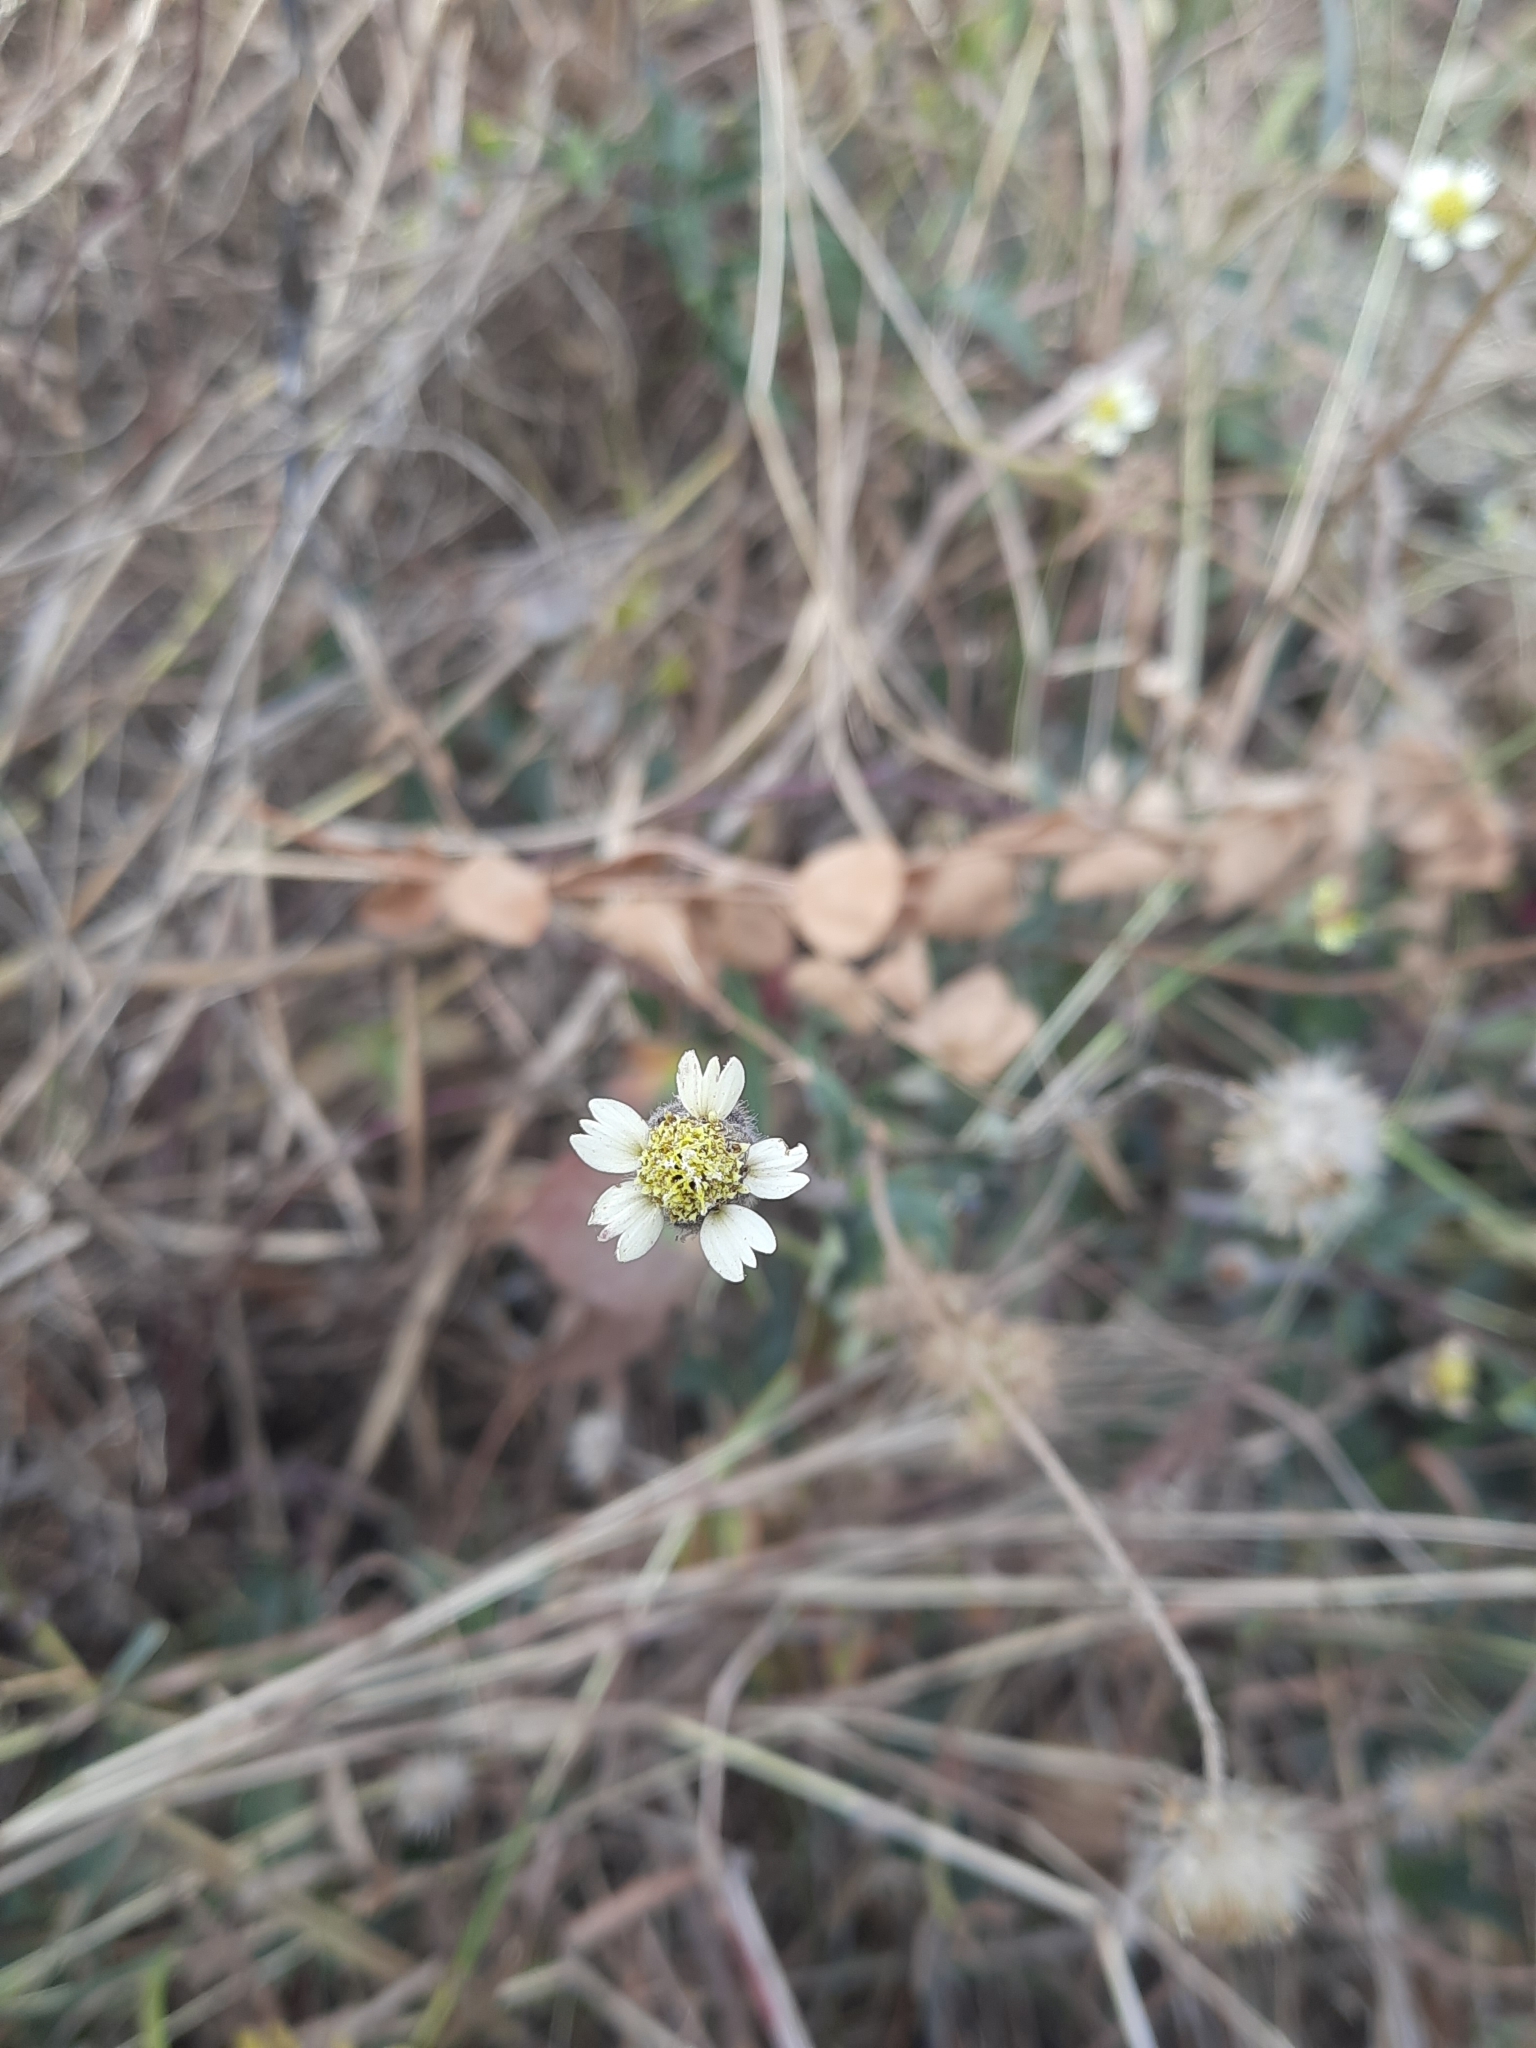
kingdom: Plantae
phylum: Tracheophyta
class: Magnoliopsida
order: Asterales
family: Asteraceae
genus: Tridax
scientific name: Tridax procumbens
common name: Coatbuttons
